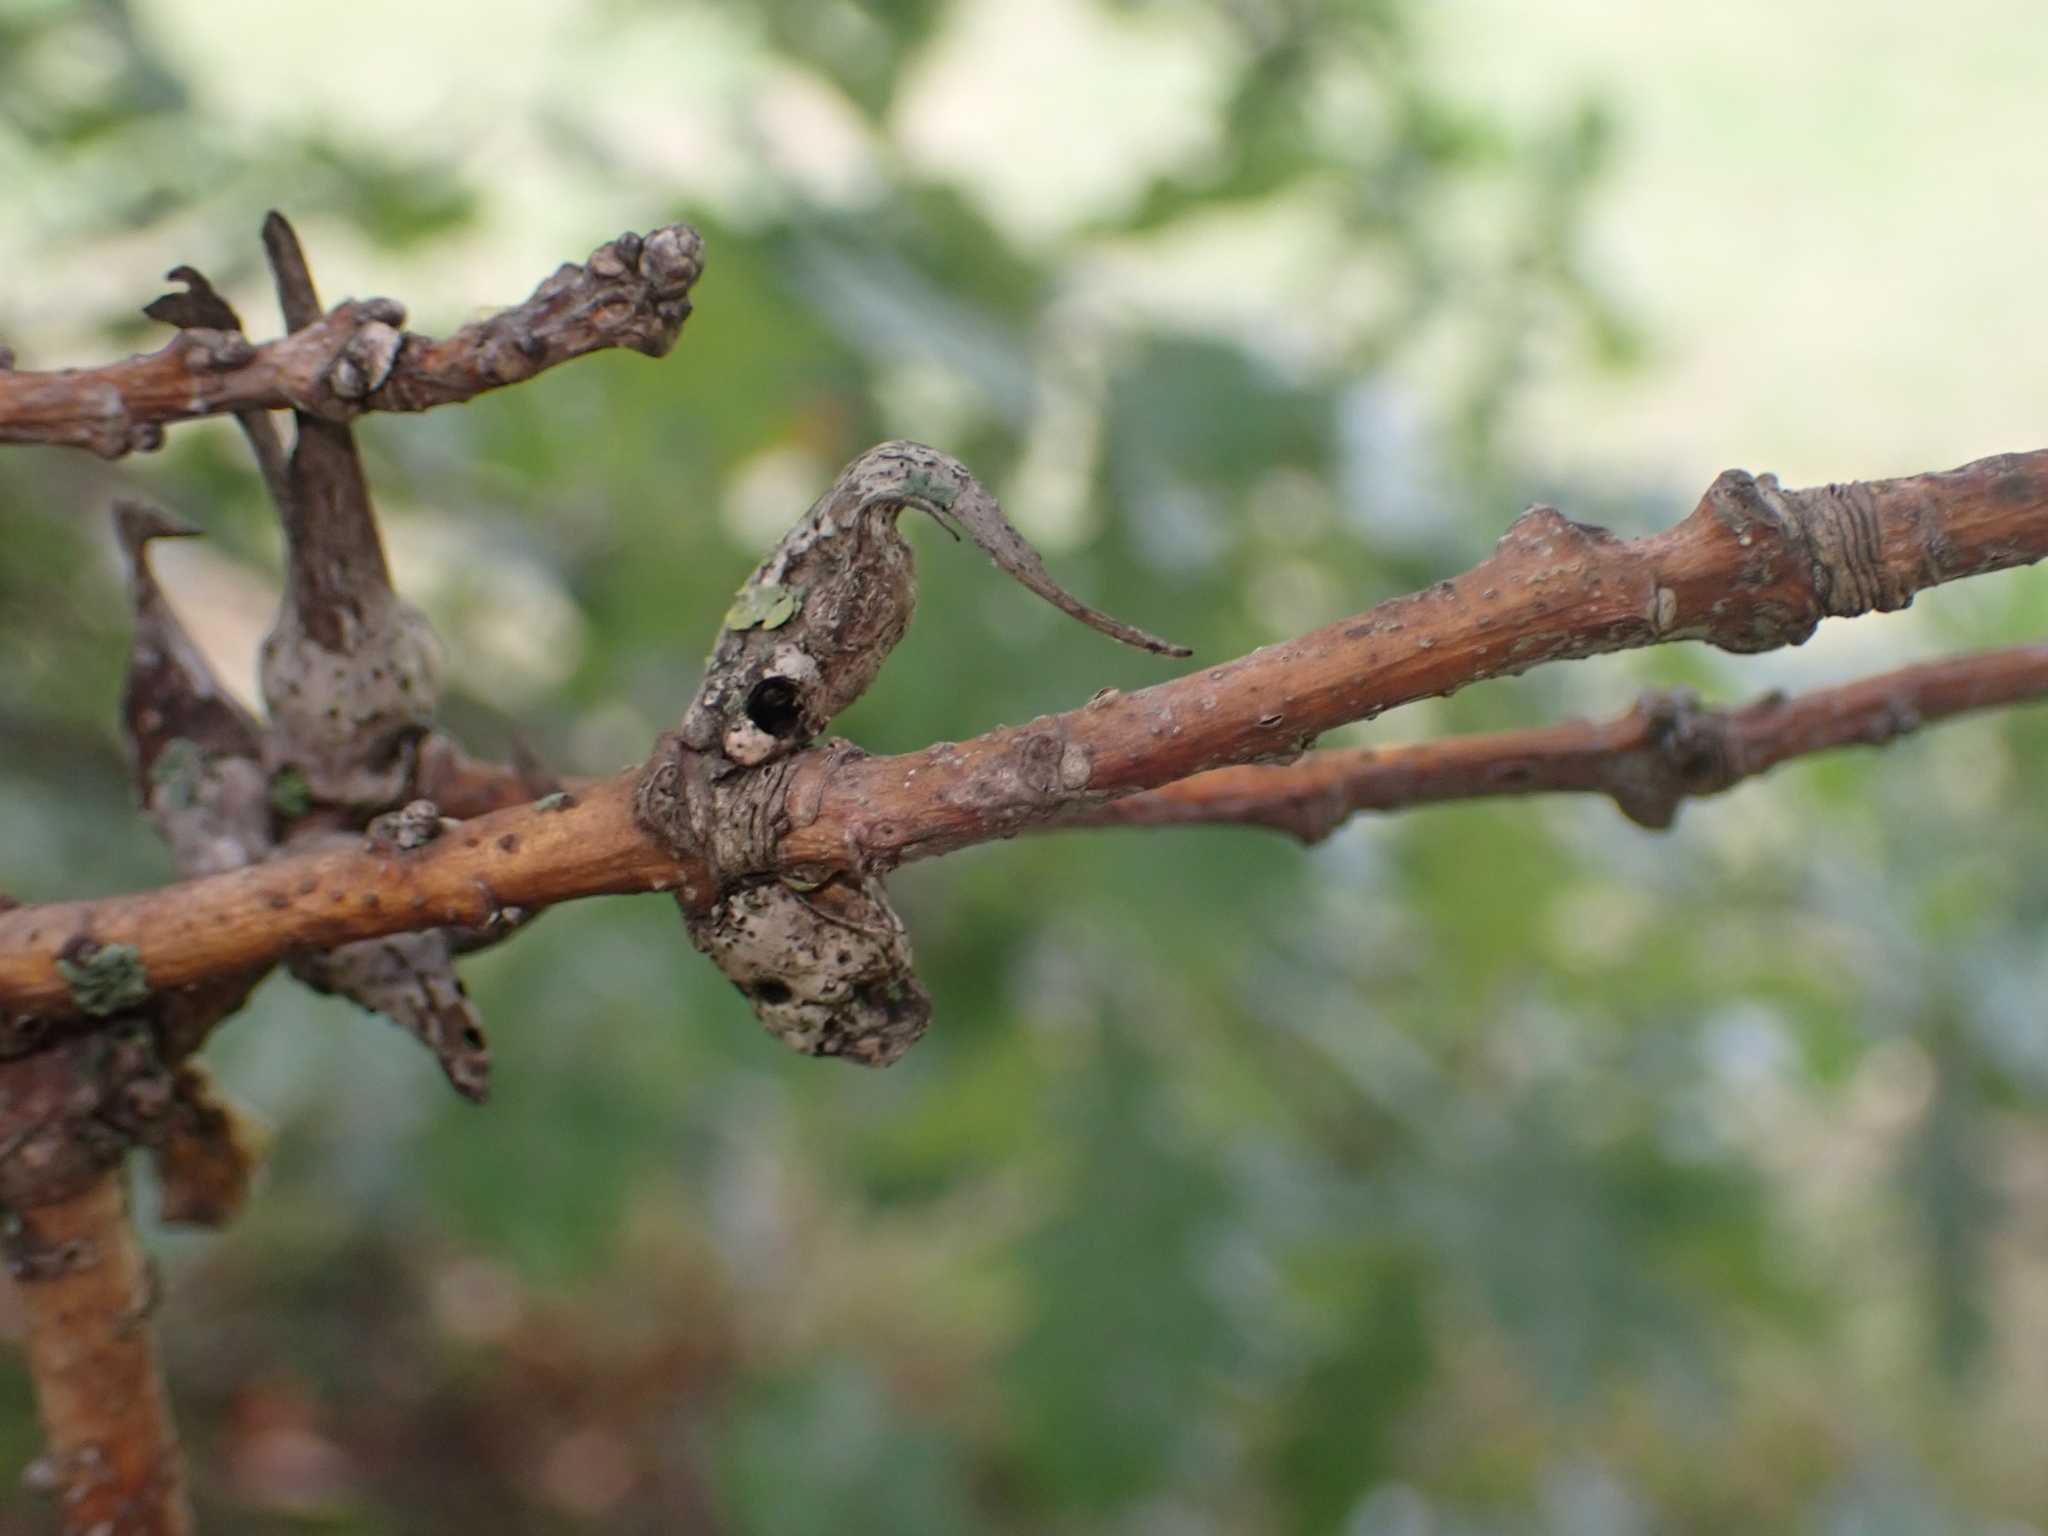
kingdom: Animalia
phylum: Arthropoda
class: Insecta
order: Hymenoptera
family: Cynipidae
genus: Andricus
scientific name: Andricus aries
